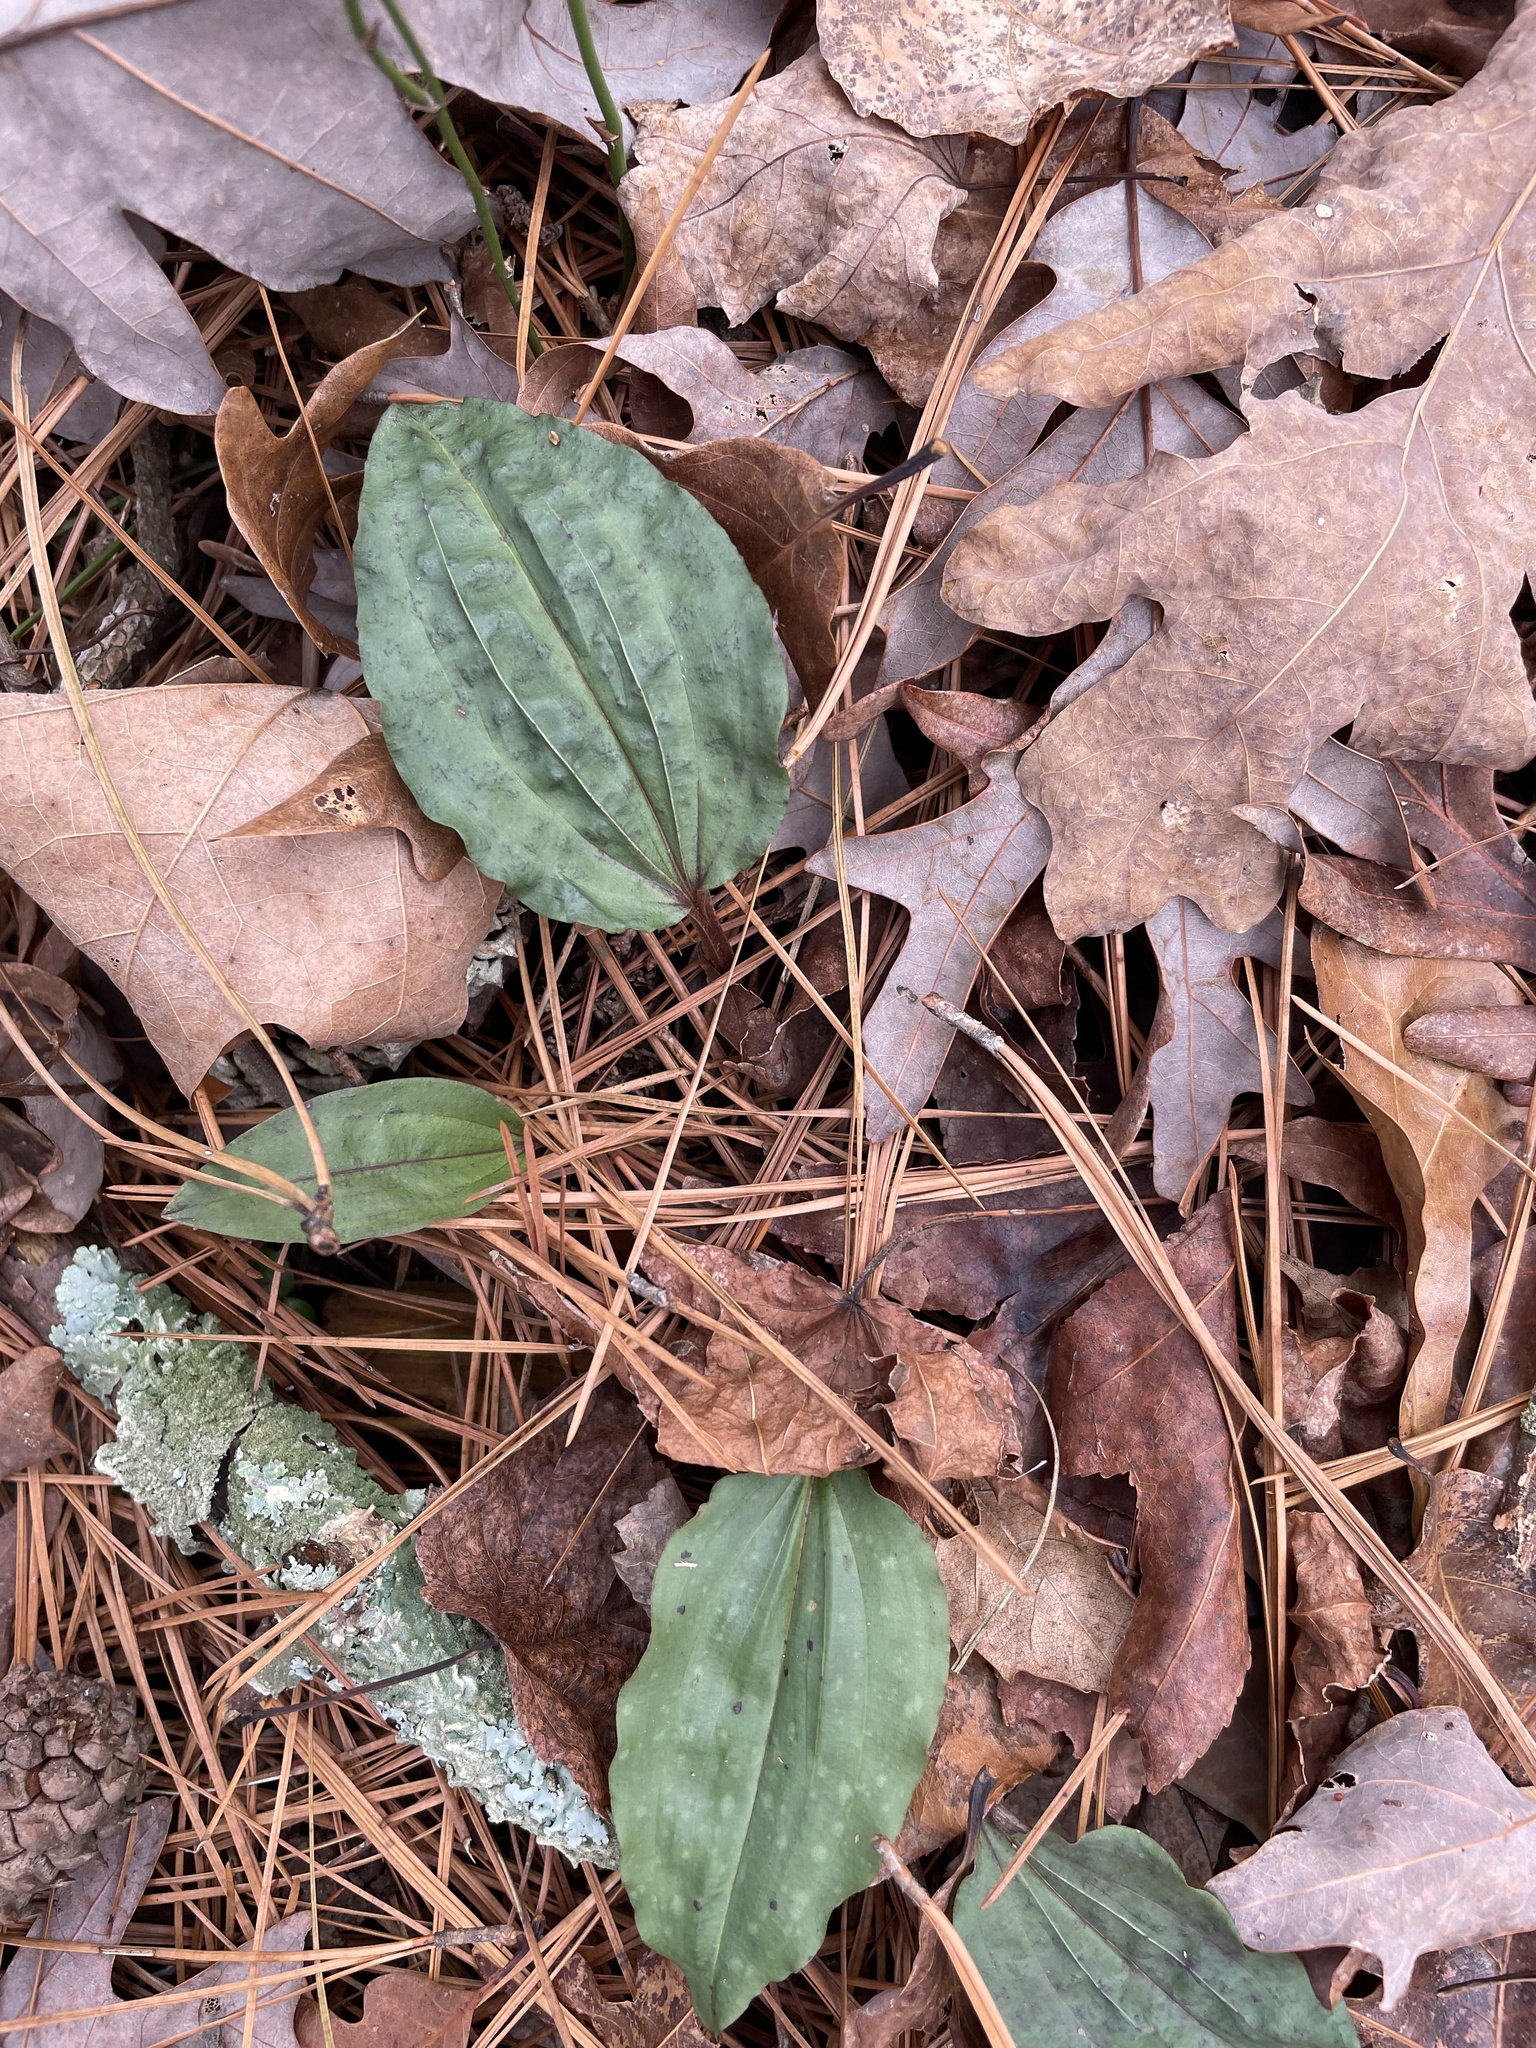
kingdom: Plantae
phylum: Tracheophyta
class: Liliopsida
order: Asparagales
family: Orchidaceae
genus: Tipularia
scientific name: Tipularia discolor
